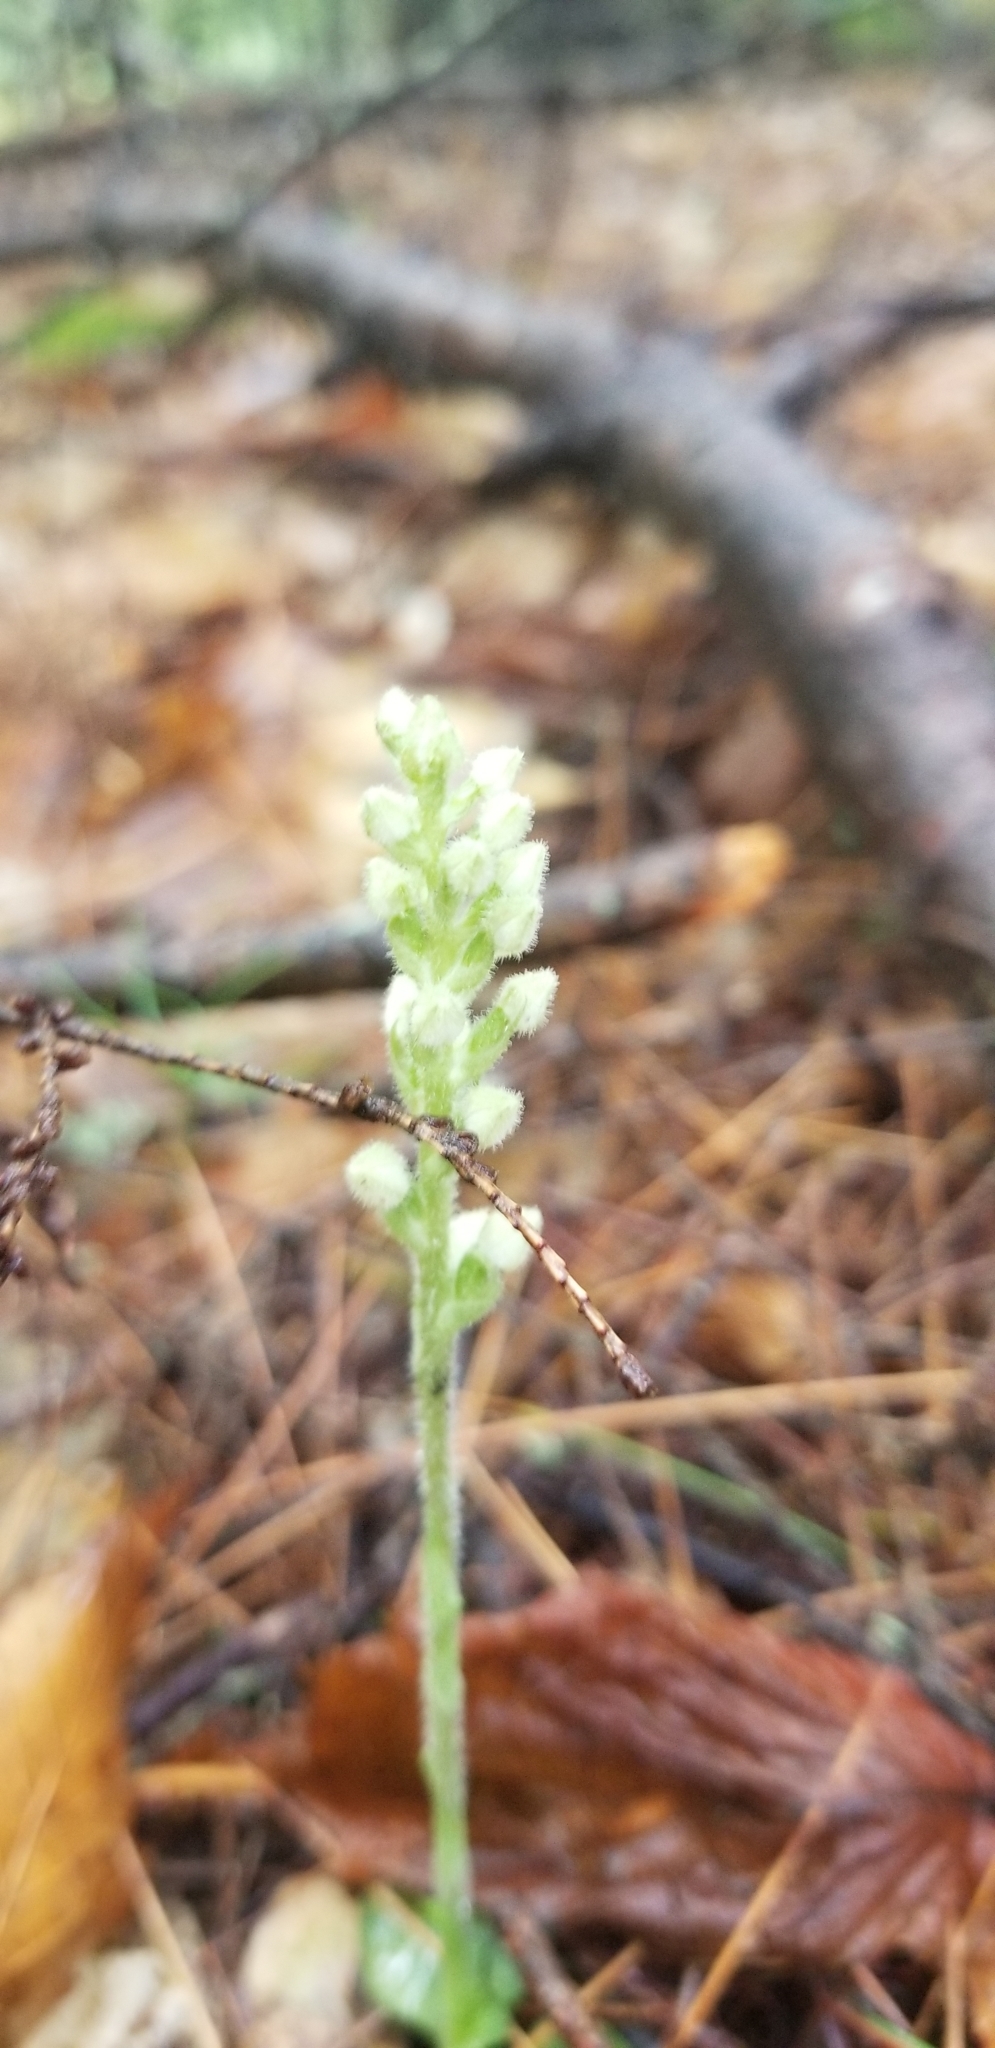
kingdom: Plantae
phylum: Tracheophyta
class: Liliopsida
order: Asparagales
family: Orchidaceae
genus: Goodyera
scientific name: Goodyera tesselata
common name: Checkered rattlesnake-plantain
